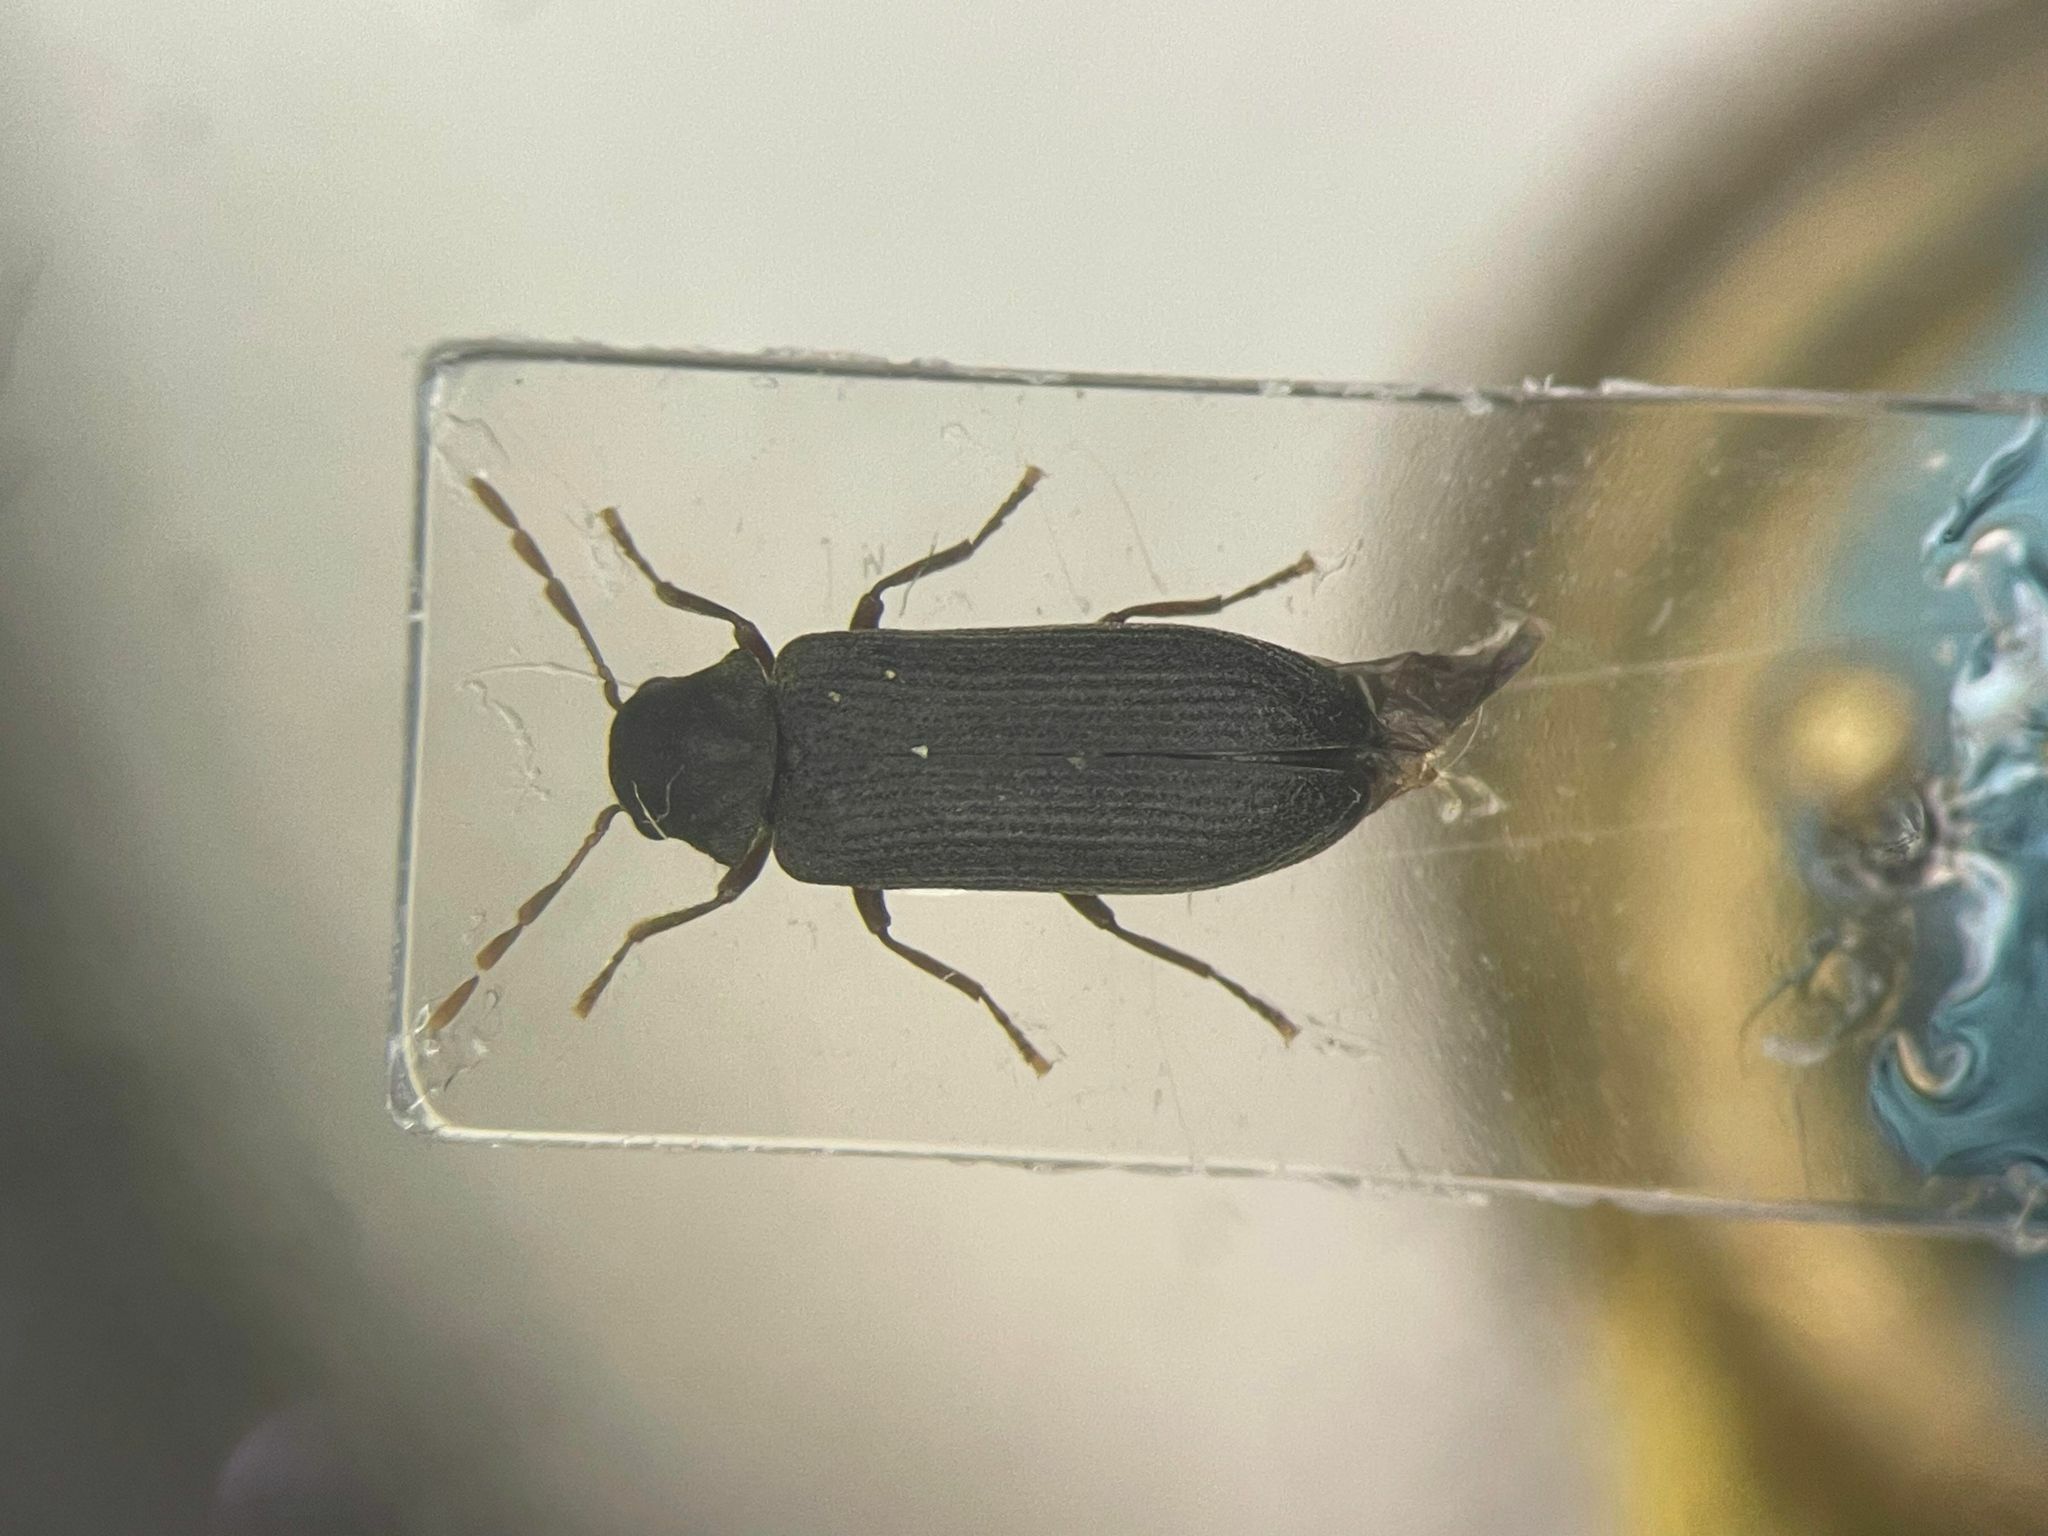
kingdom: Animalia
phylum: Arthropoda
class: Insecta
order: Coleoptera
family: Anobiidae
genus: Hemicoelus
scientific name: Hemicoelus umbrosus
